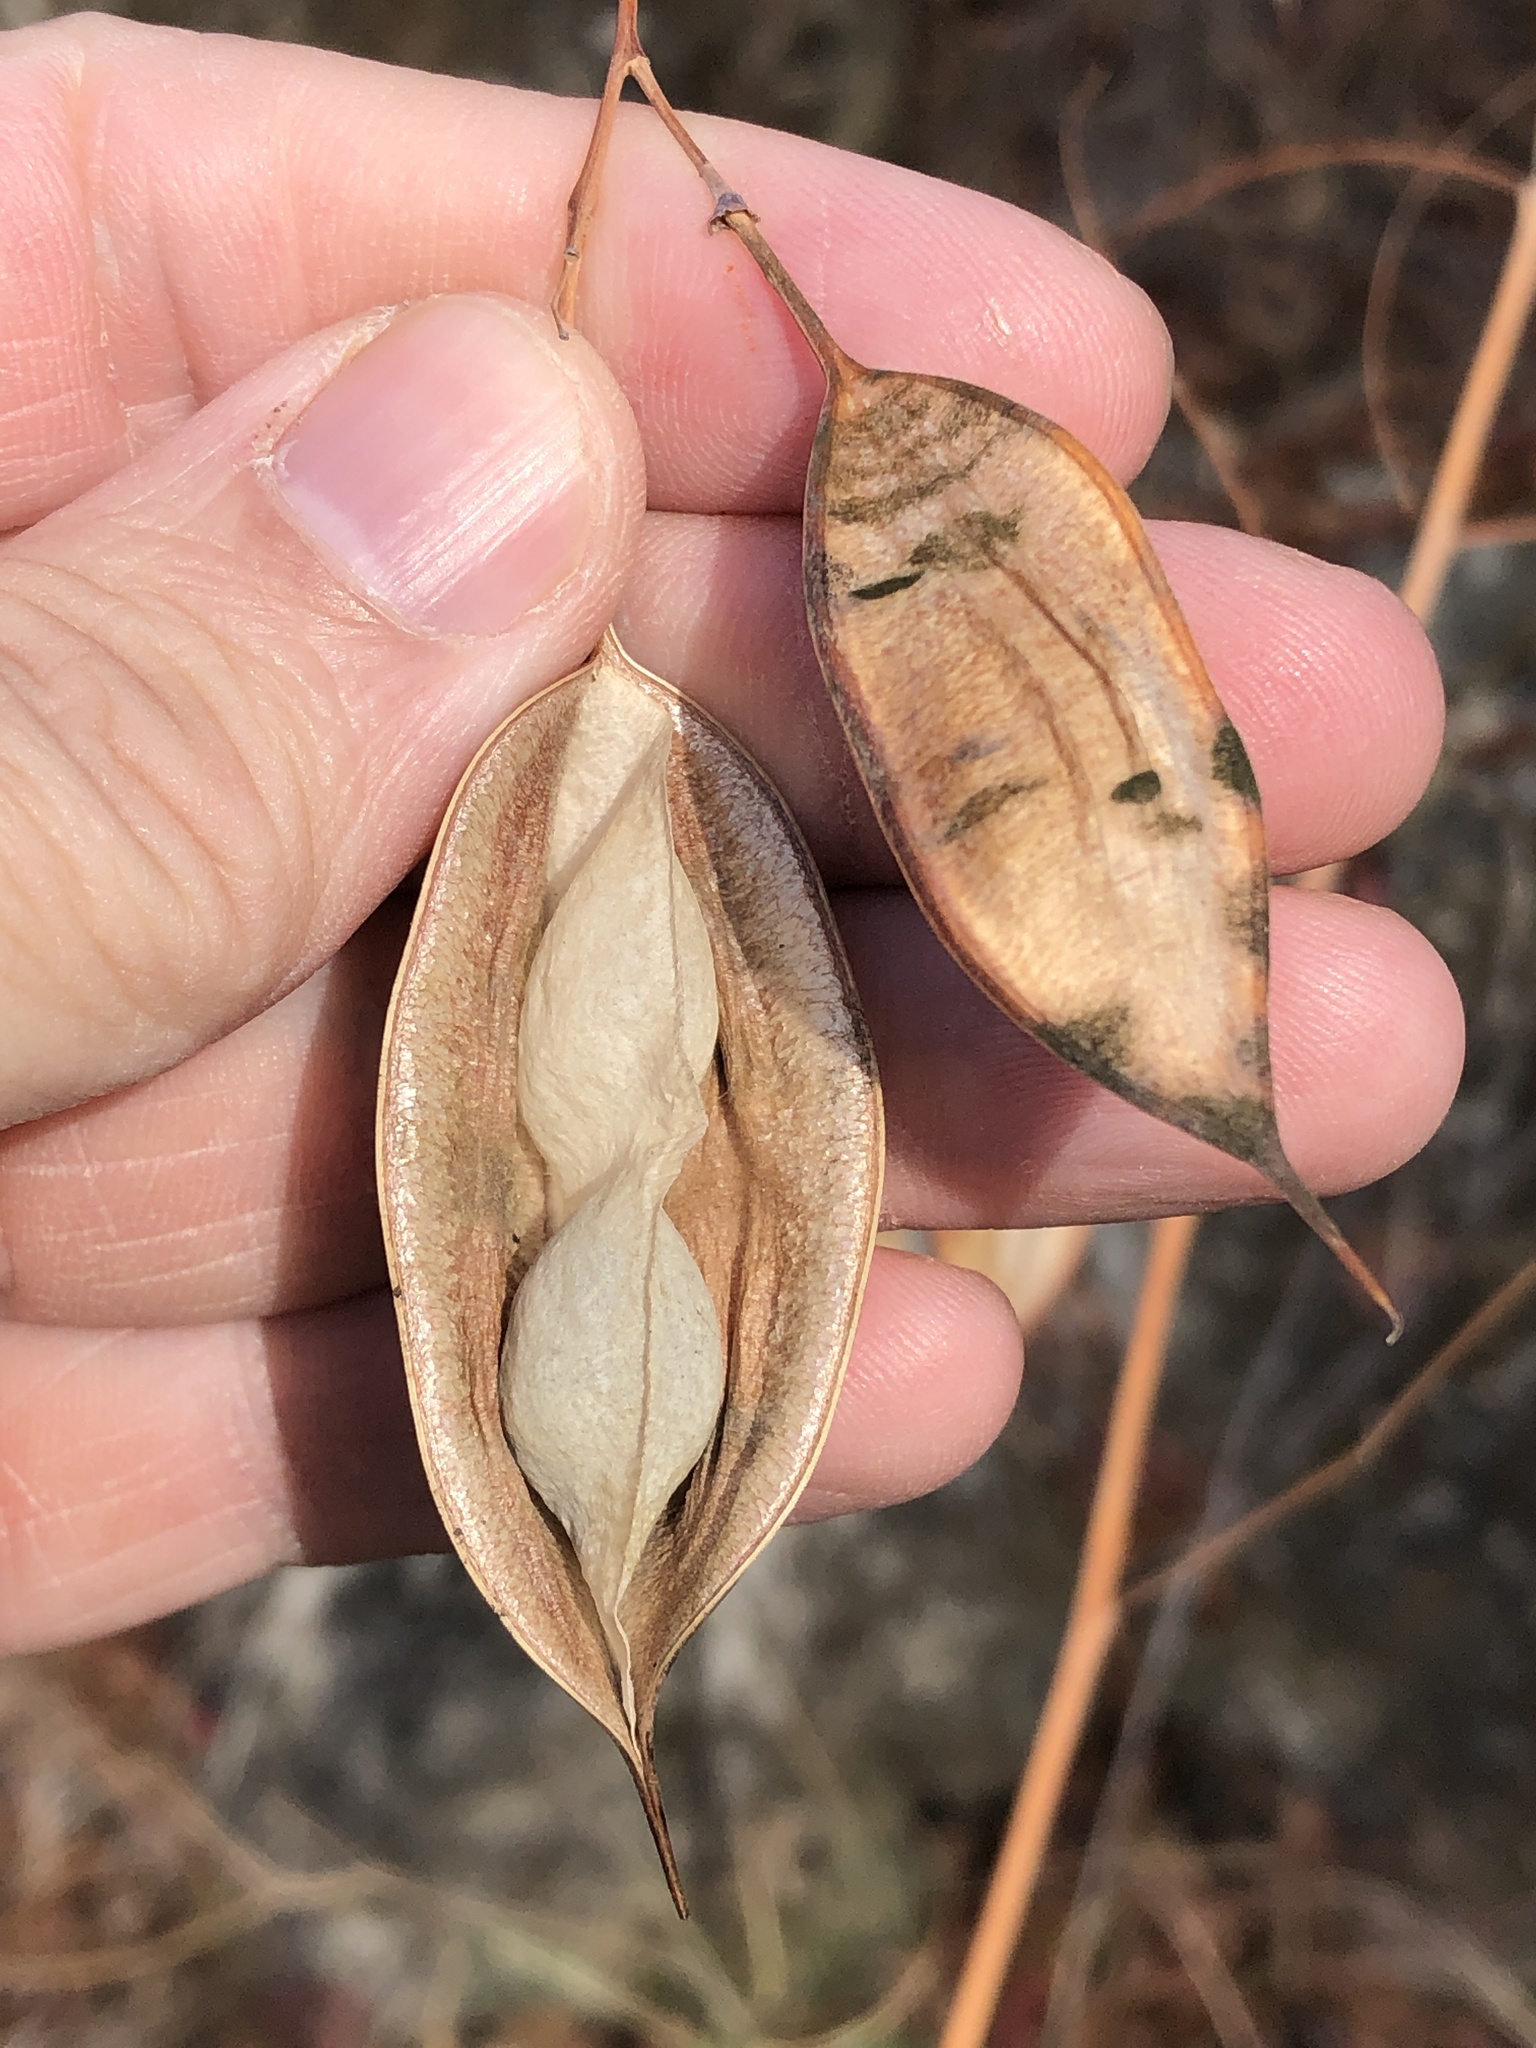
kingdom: Plantae
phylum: Tracheophyta
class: Magnoliopsida
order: Fabales
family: Fabaceae
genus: Sesbania
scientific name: Sesbania vesicaria
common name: Bagpod
